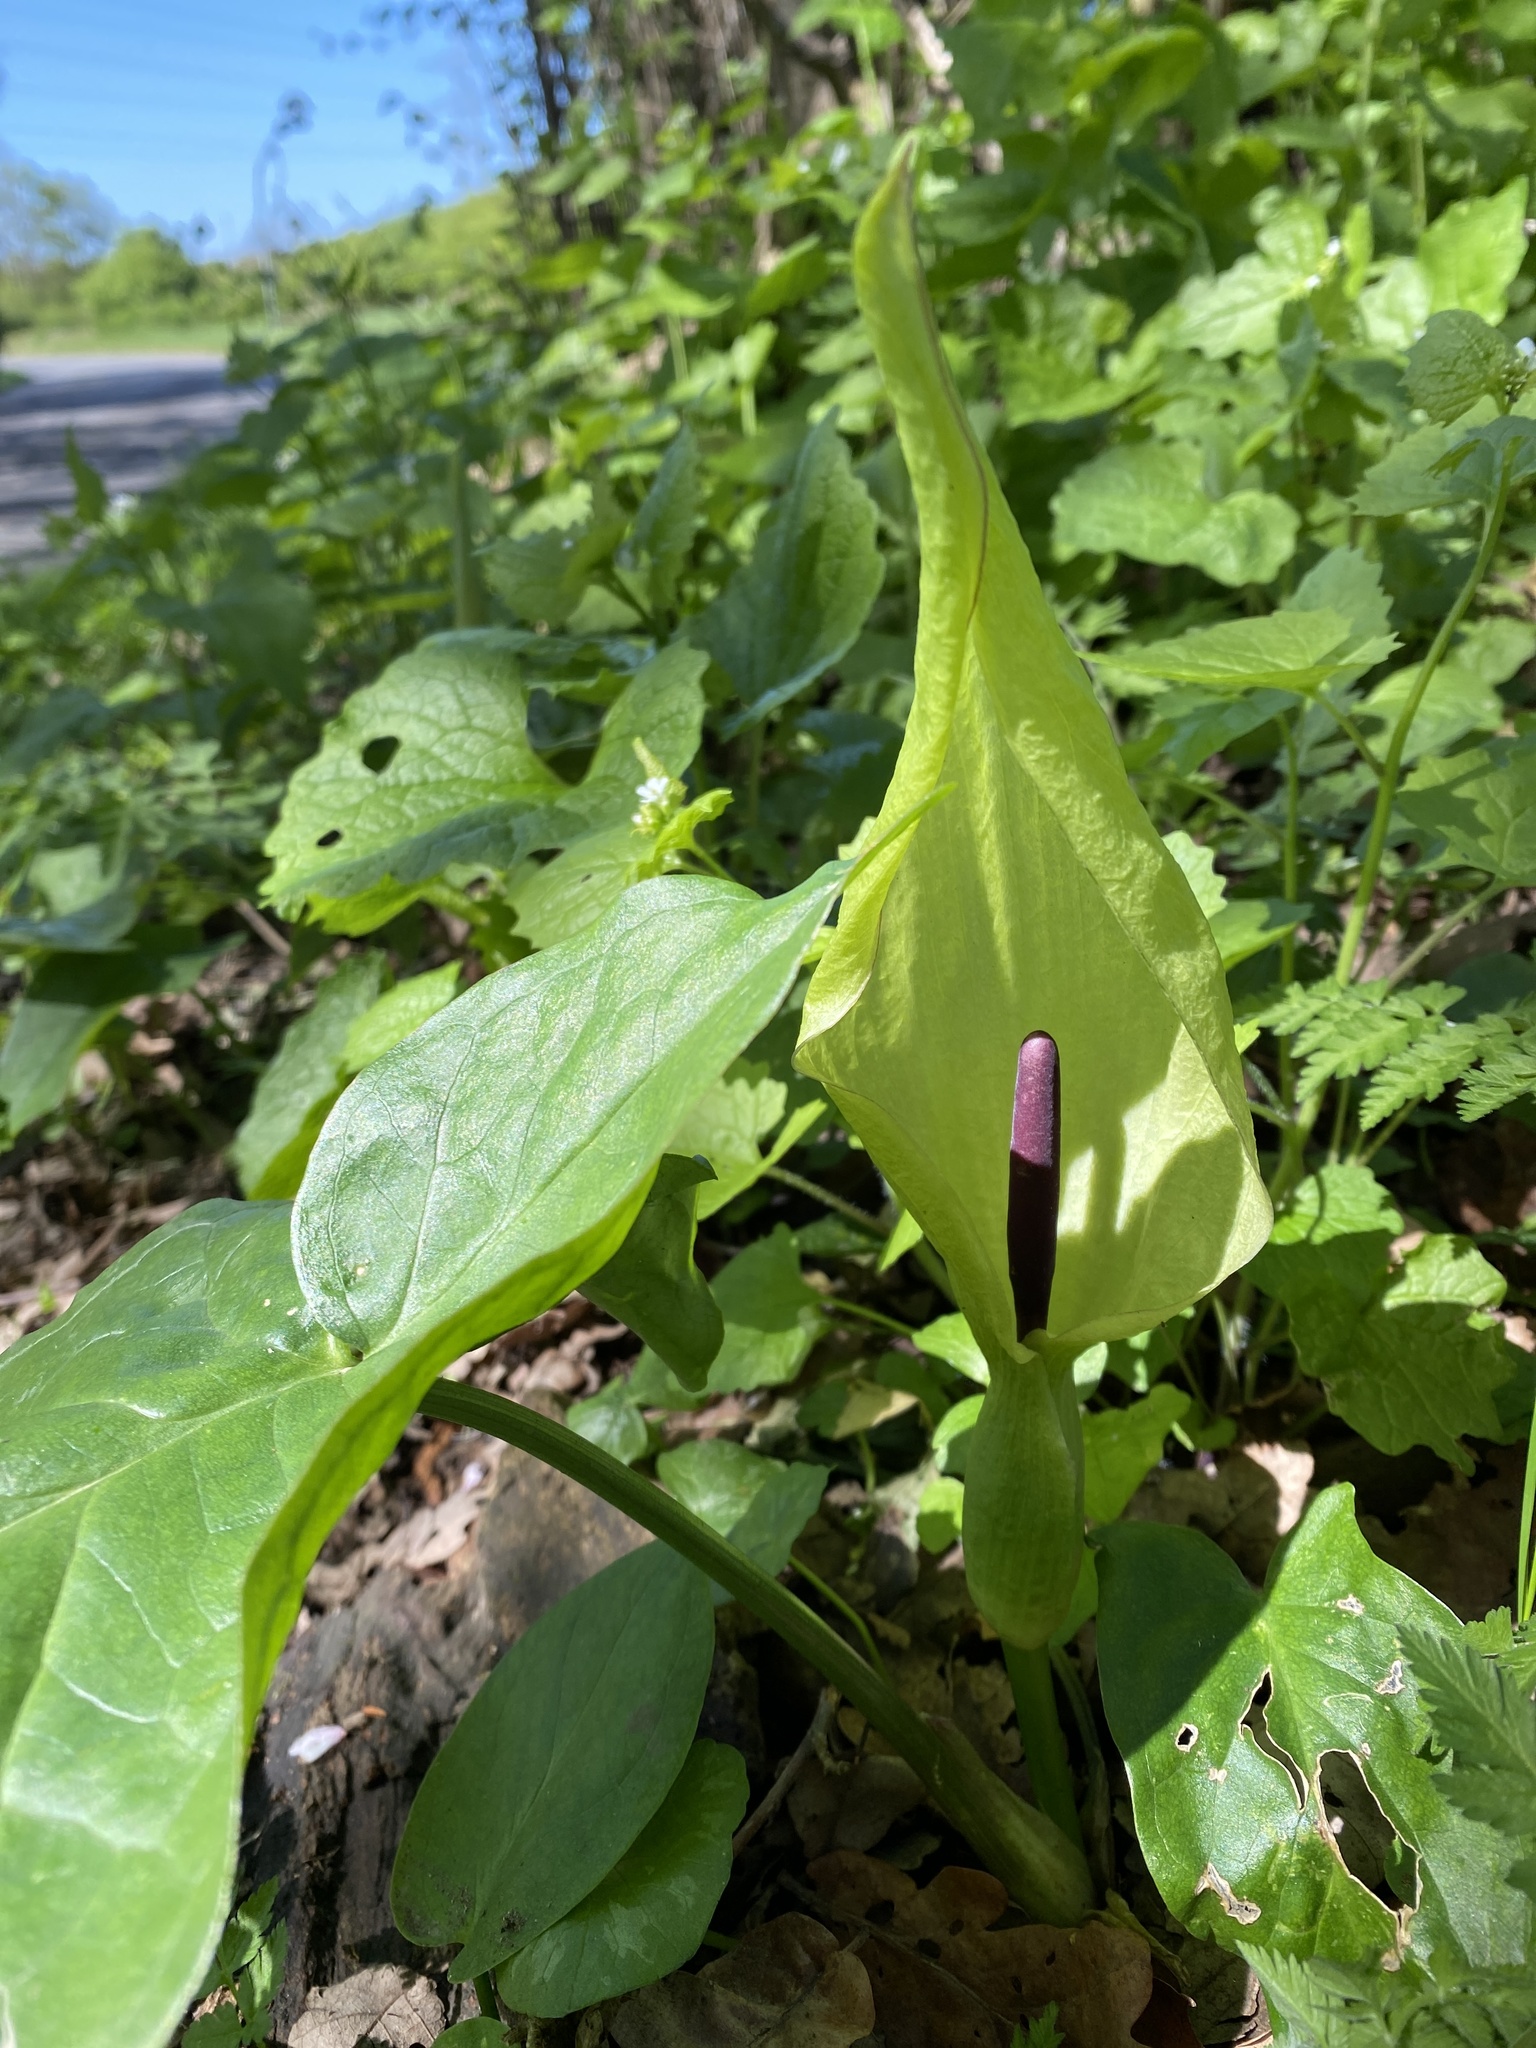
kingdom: Plantae
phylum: Tracheophyta
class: Liliopsida
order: Alismatales
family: Araceae
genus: Arum
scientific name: Arum maculatum
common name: Lords-and-ladies
